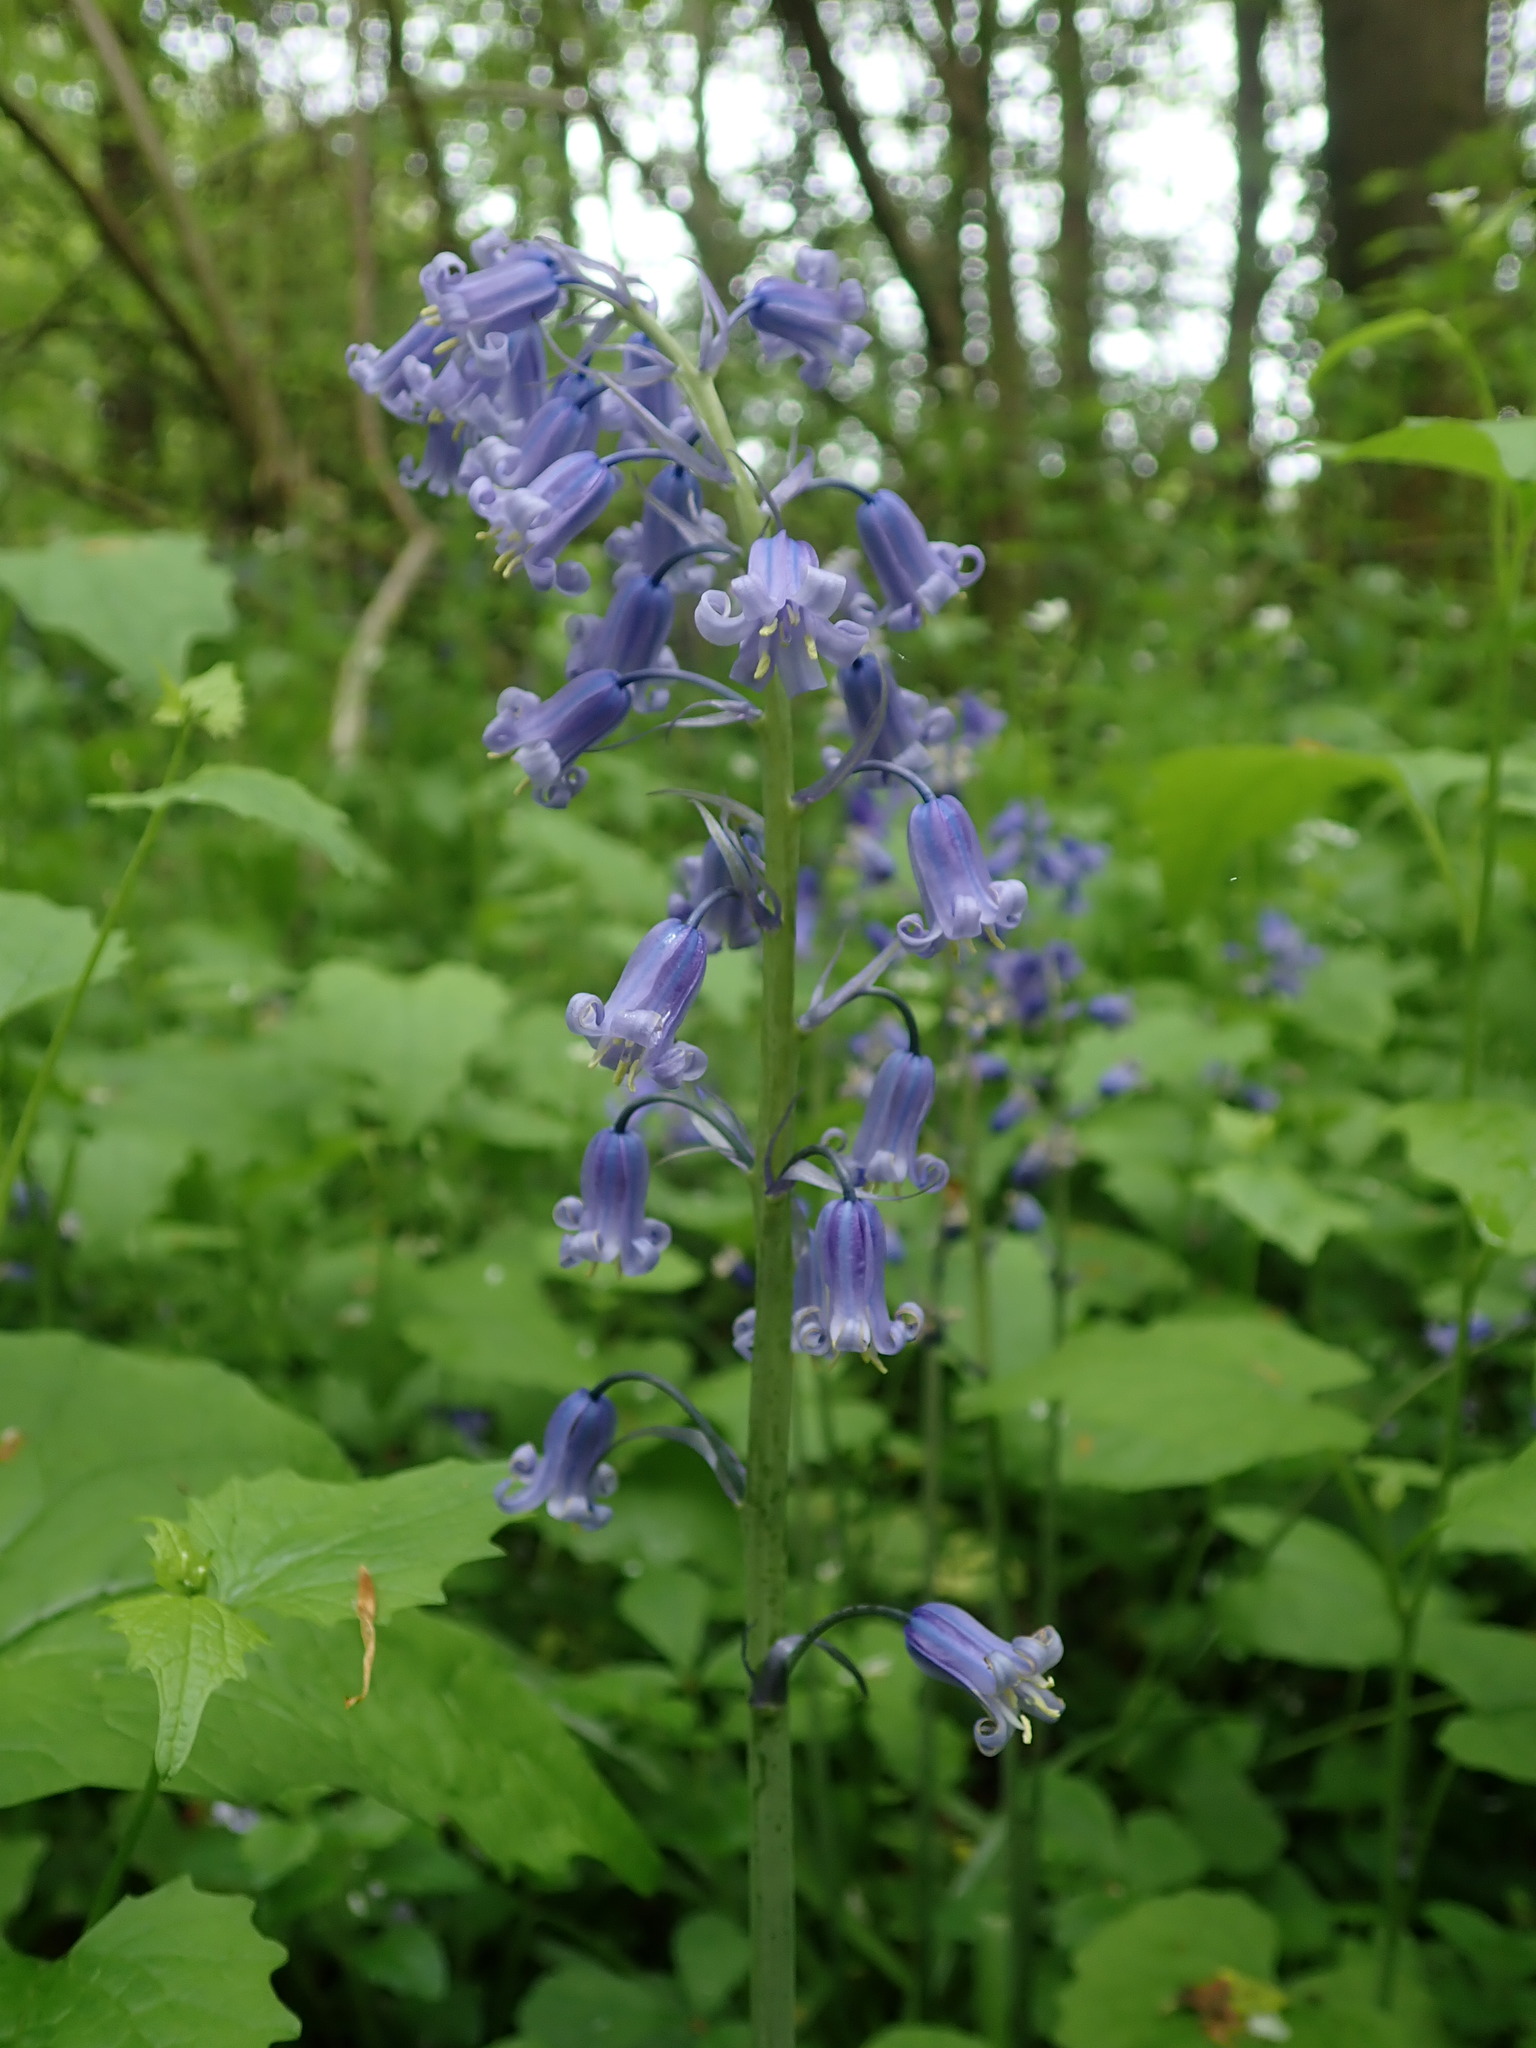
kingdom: Plantae
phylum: Tracheophyta
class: Liliopsida
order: Asparagales
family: Asparagaceae
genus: Hyacinthoides
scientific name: Hyacinthoides massartiana
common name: Hyacinthoides
